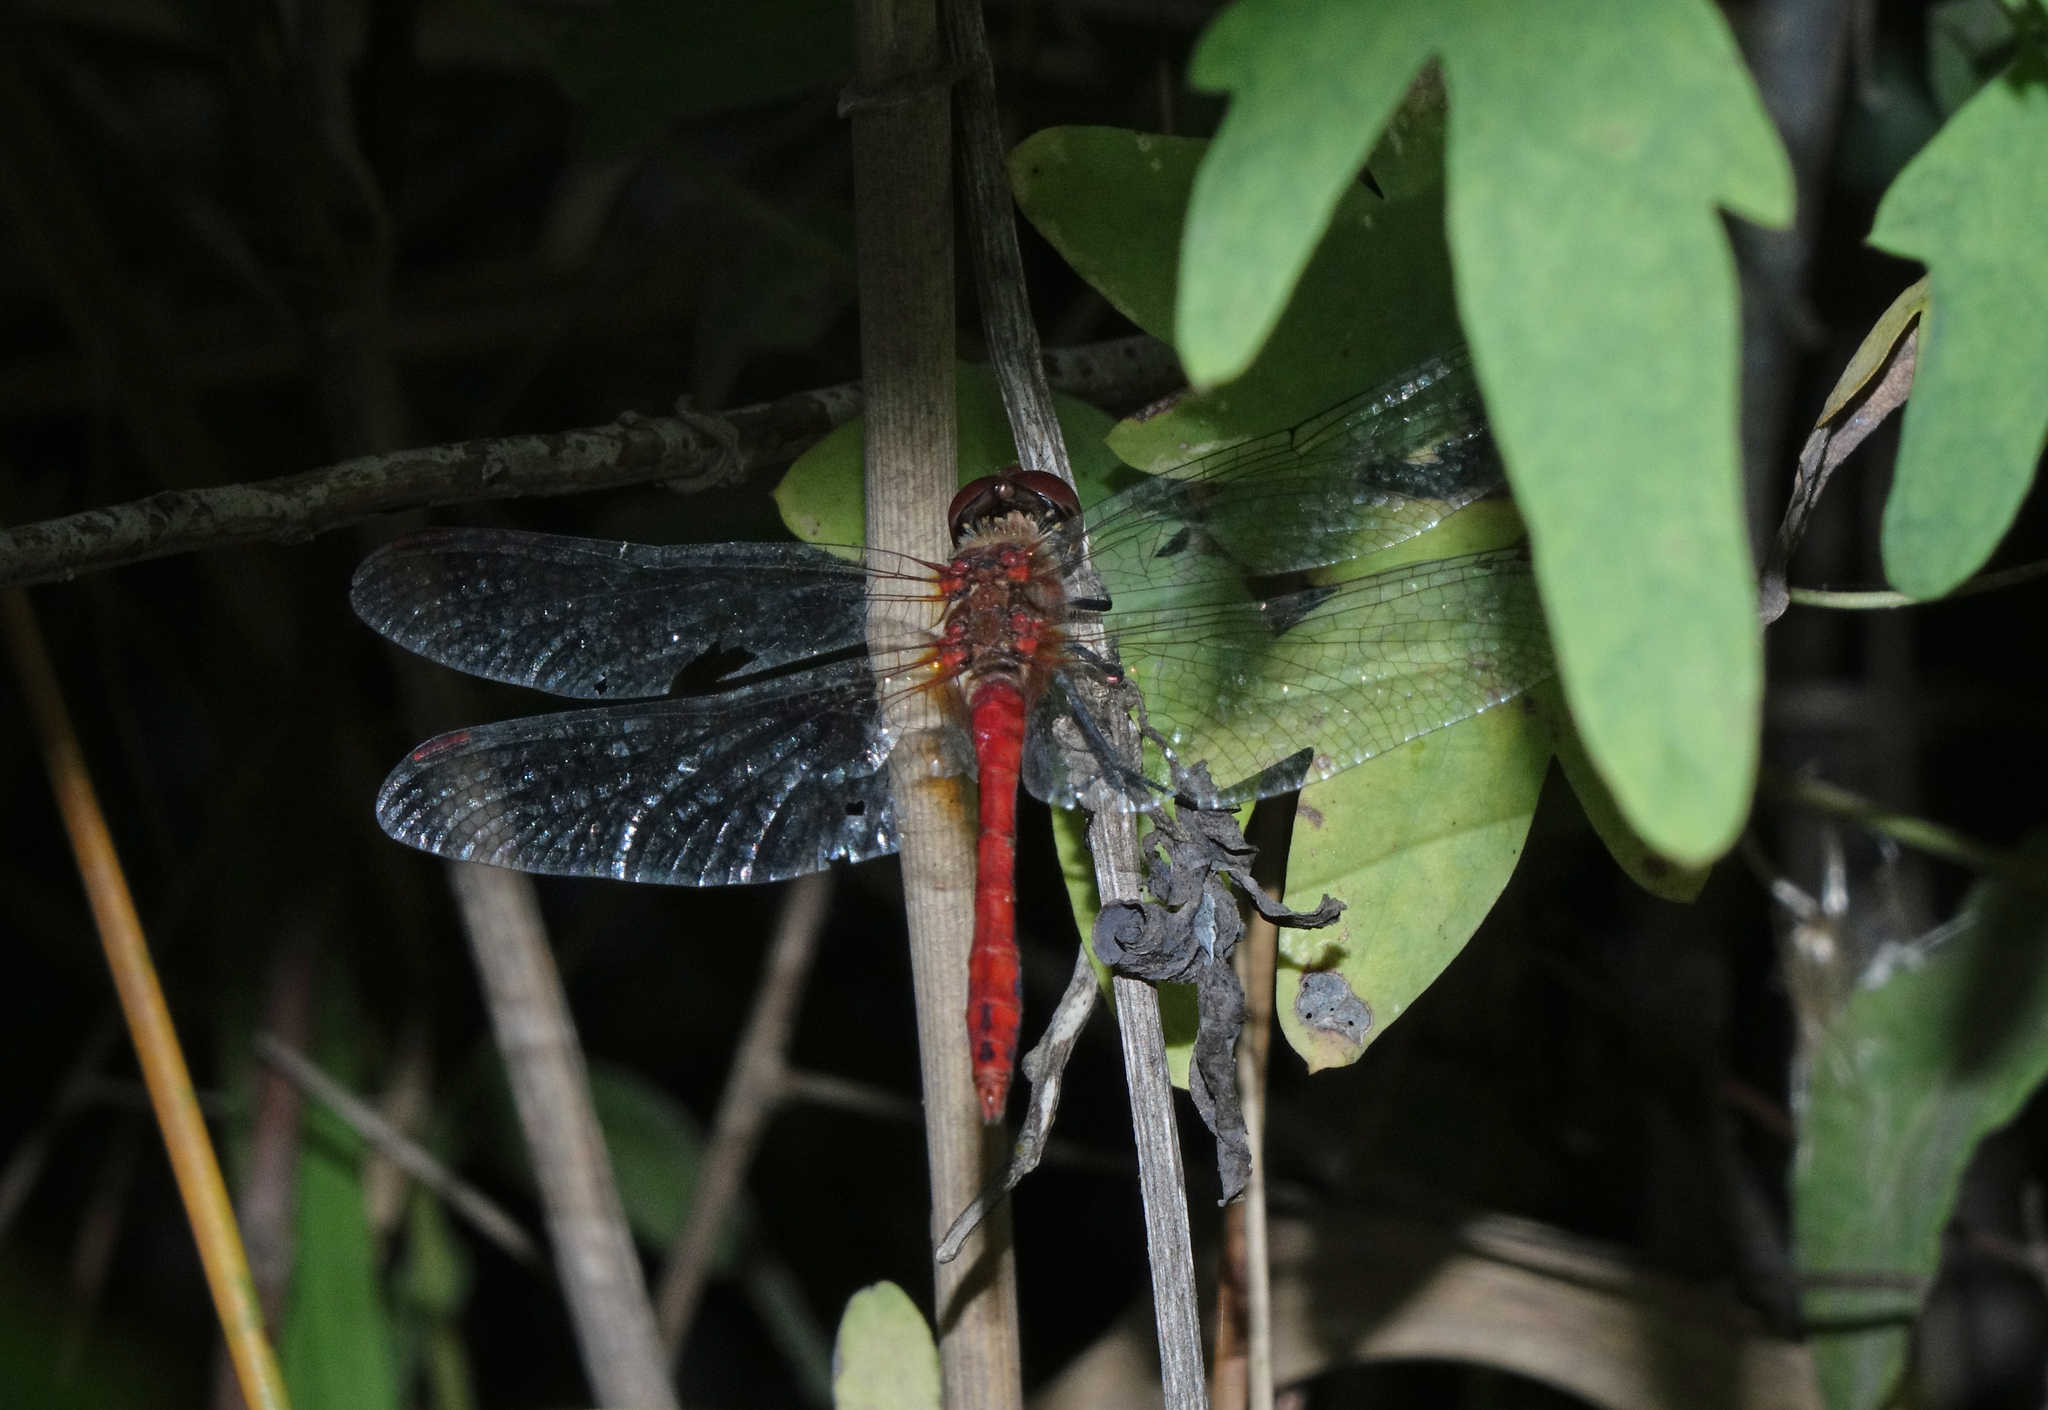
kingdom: Animalia
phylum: Arthropoda
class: Insecta
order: Odonata
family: Libellulidae
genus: Sympetrum
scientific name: Sympetrum sanguineum
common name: Ruddy darter
